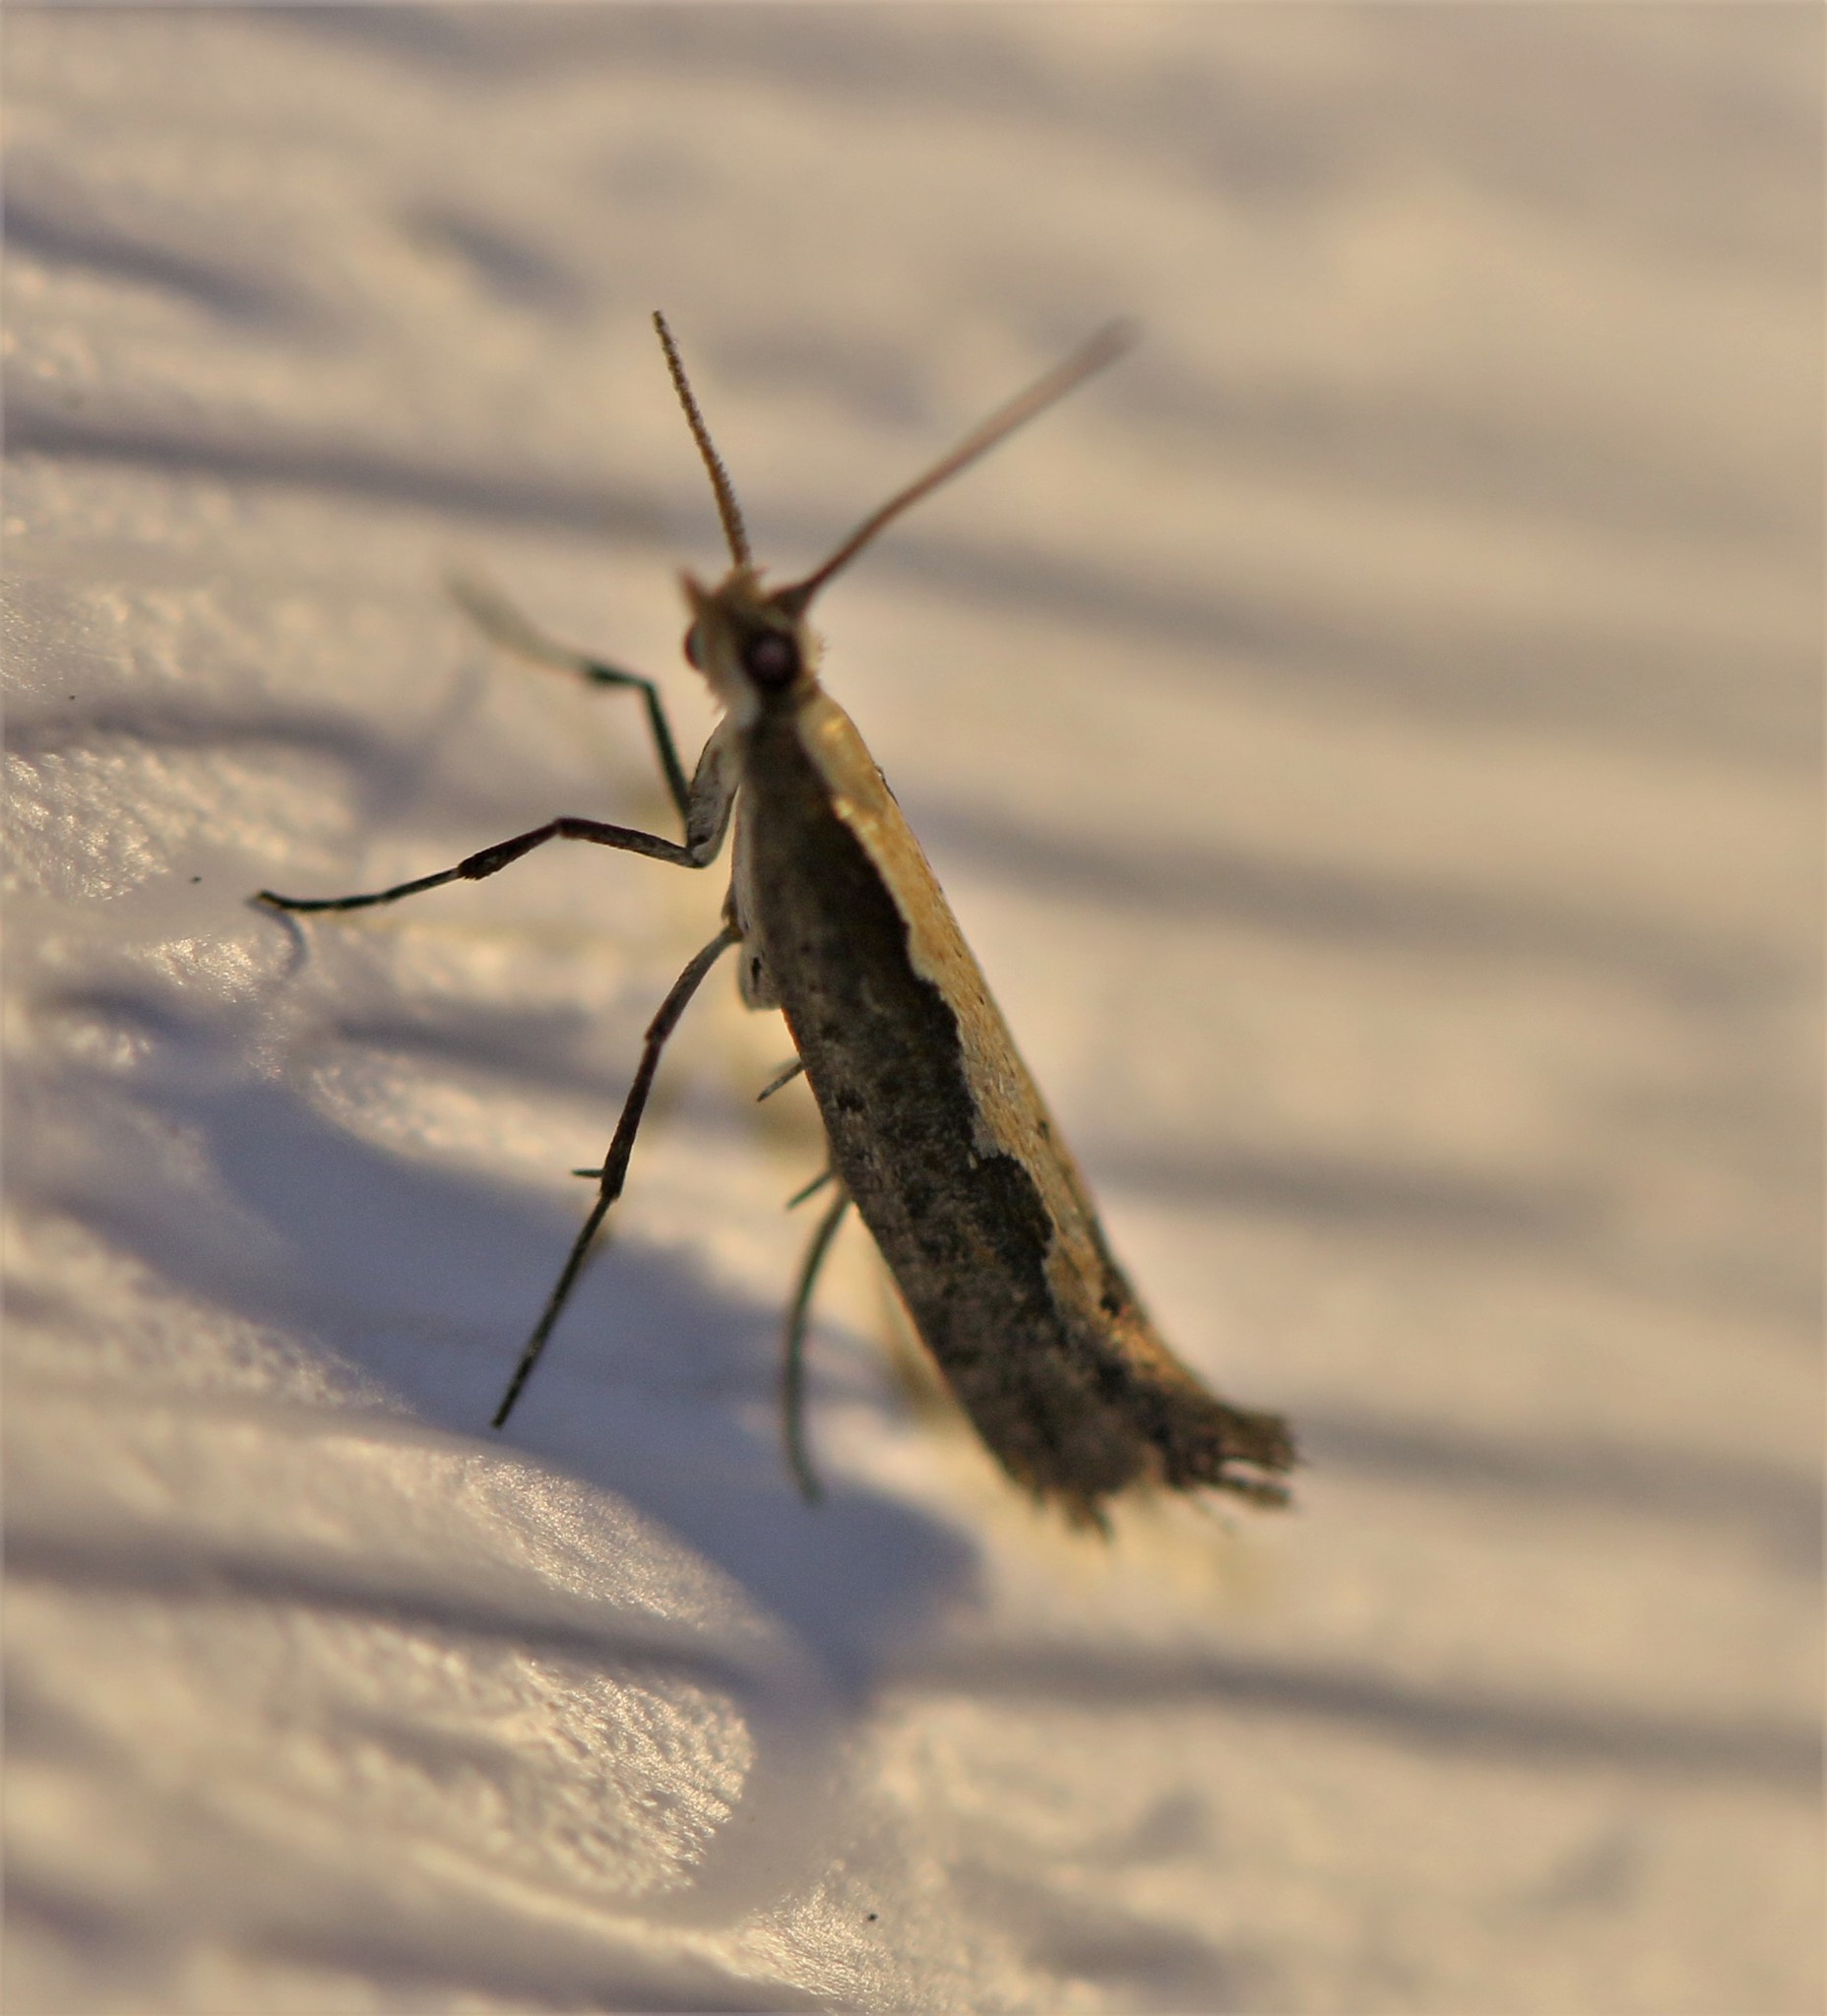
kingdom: Animalia
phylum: Arthropoda
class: Insecta
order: Lepidoptera
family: Plutellidae
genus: Plutella
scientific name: Plutella xylostella
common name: Diamond-back moth
